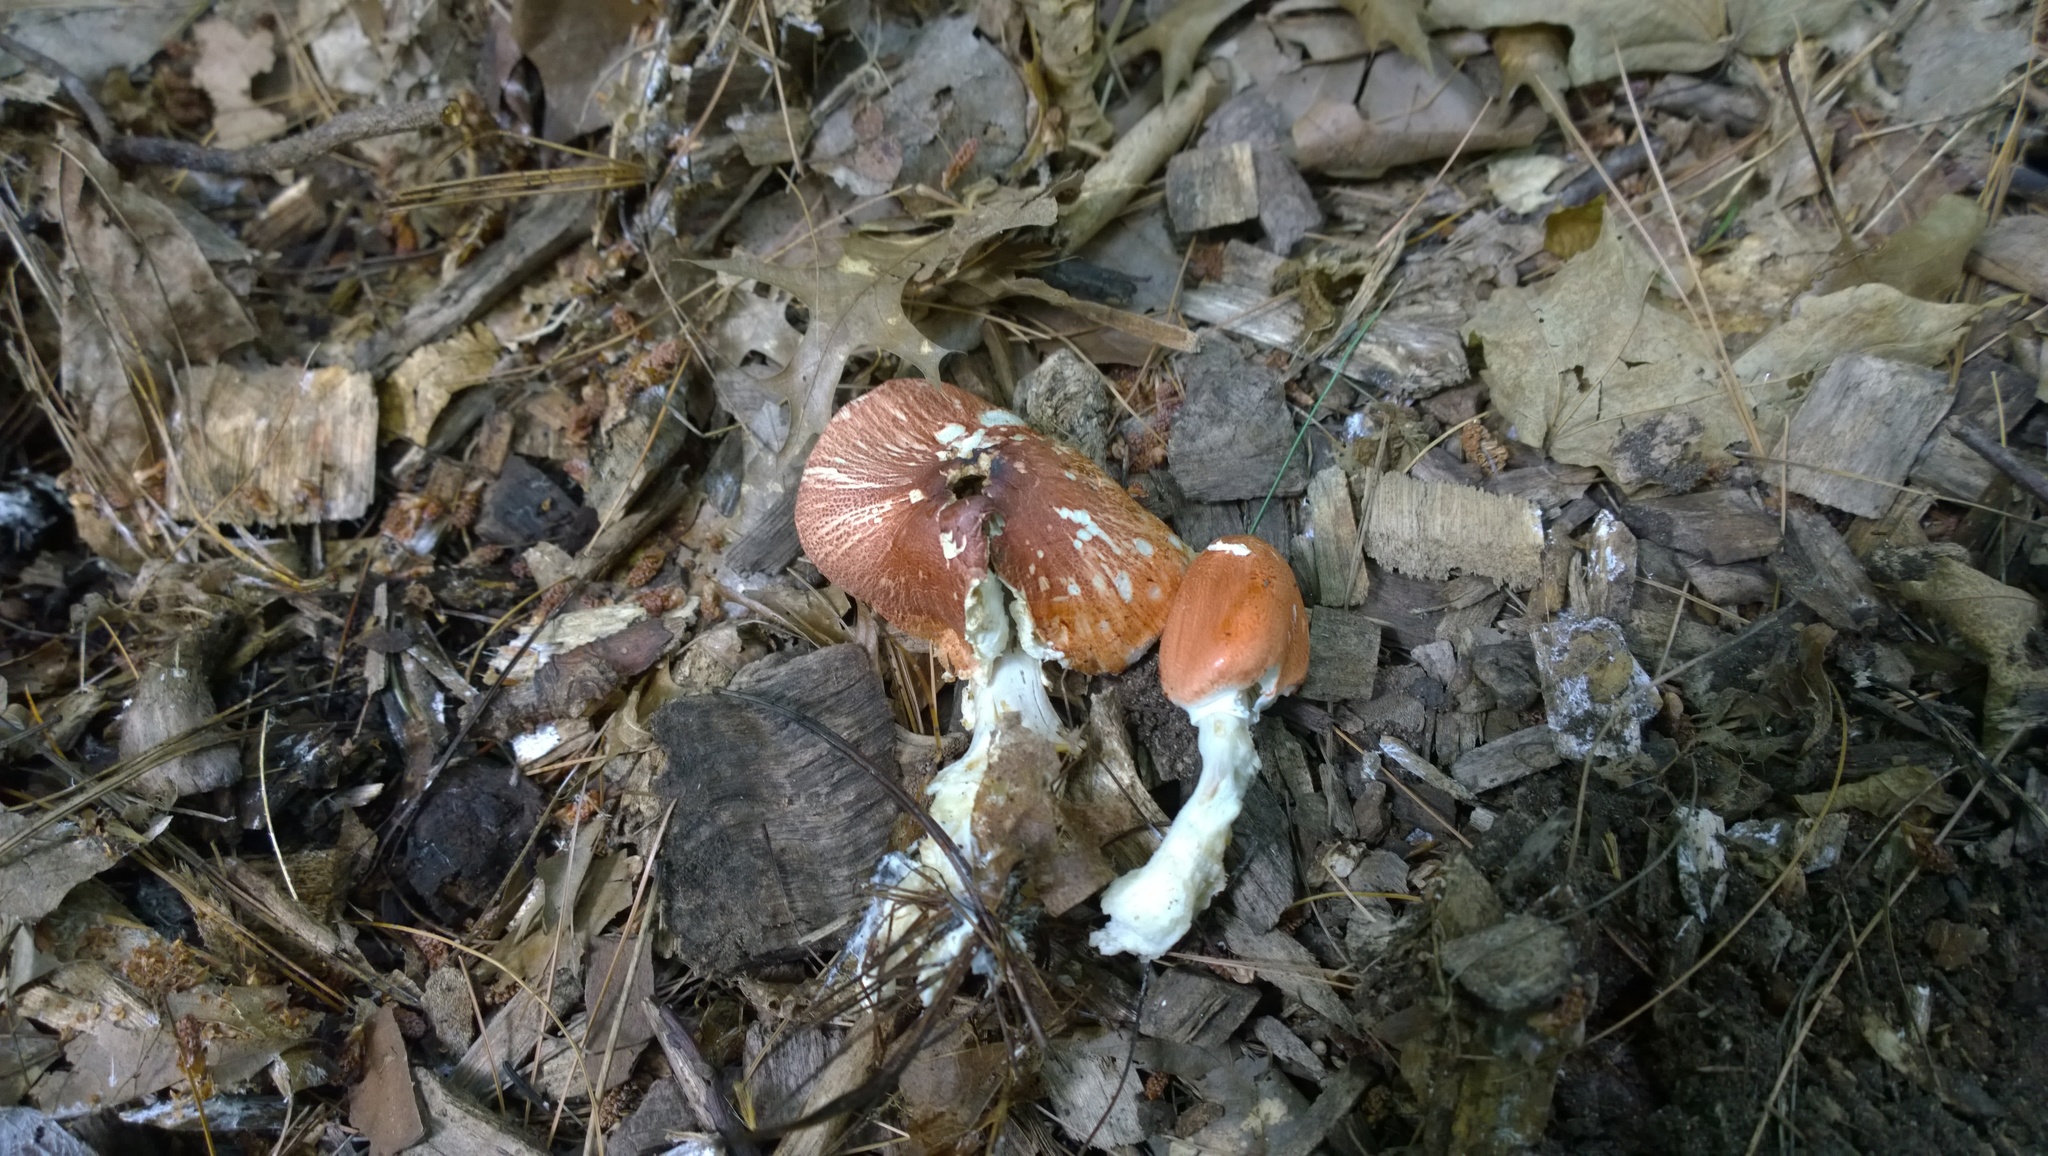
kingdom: Fungi
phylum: Basidiomycota
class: Agaricomycetes
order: Agaricales
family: Agaricaceae
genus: Leucoagaricus
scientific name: Leucoagaricus rubrotinctus
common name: Ruby dapperling
